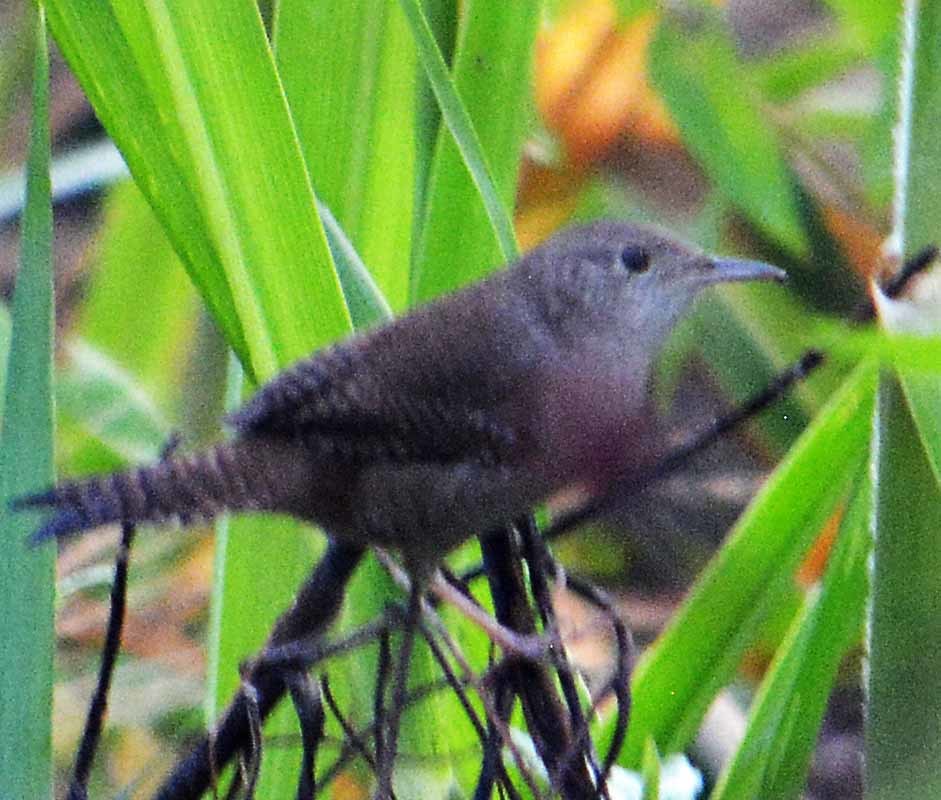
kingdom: Animalia
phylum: Chordata
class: Aves
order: Passeriformes
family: Troglodytidae
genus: Troglodytes
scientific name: Troglodytes aedon
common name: House wren
